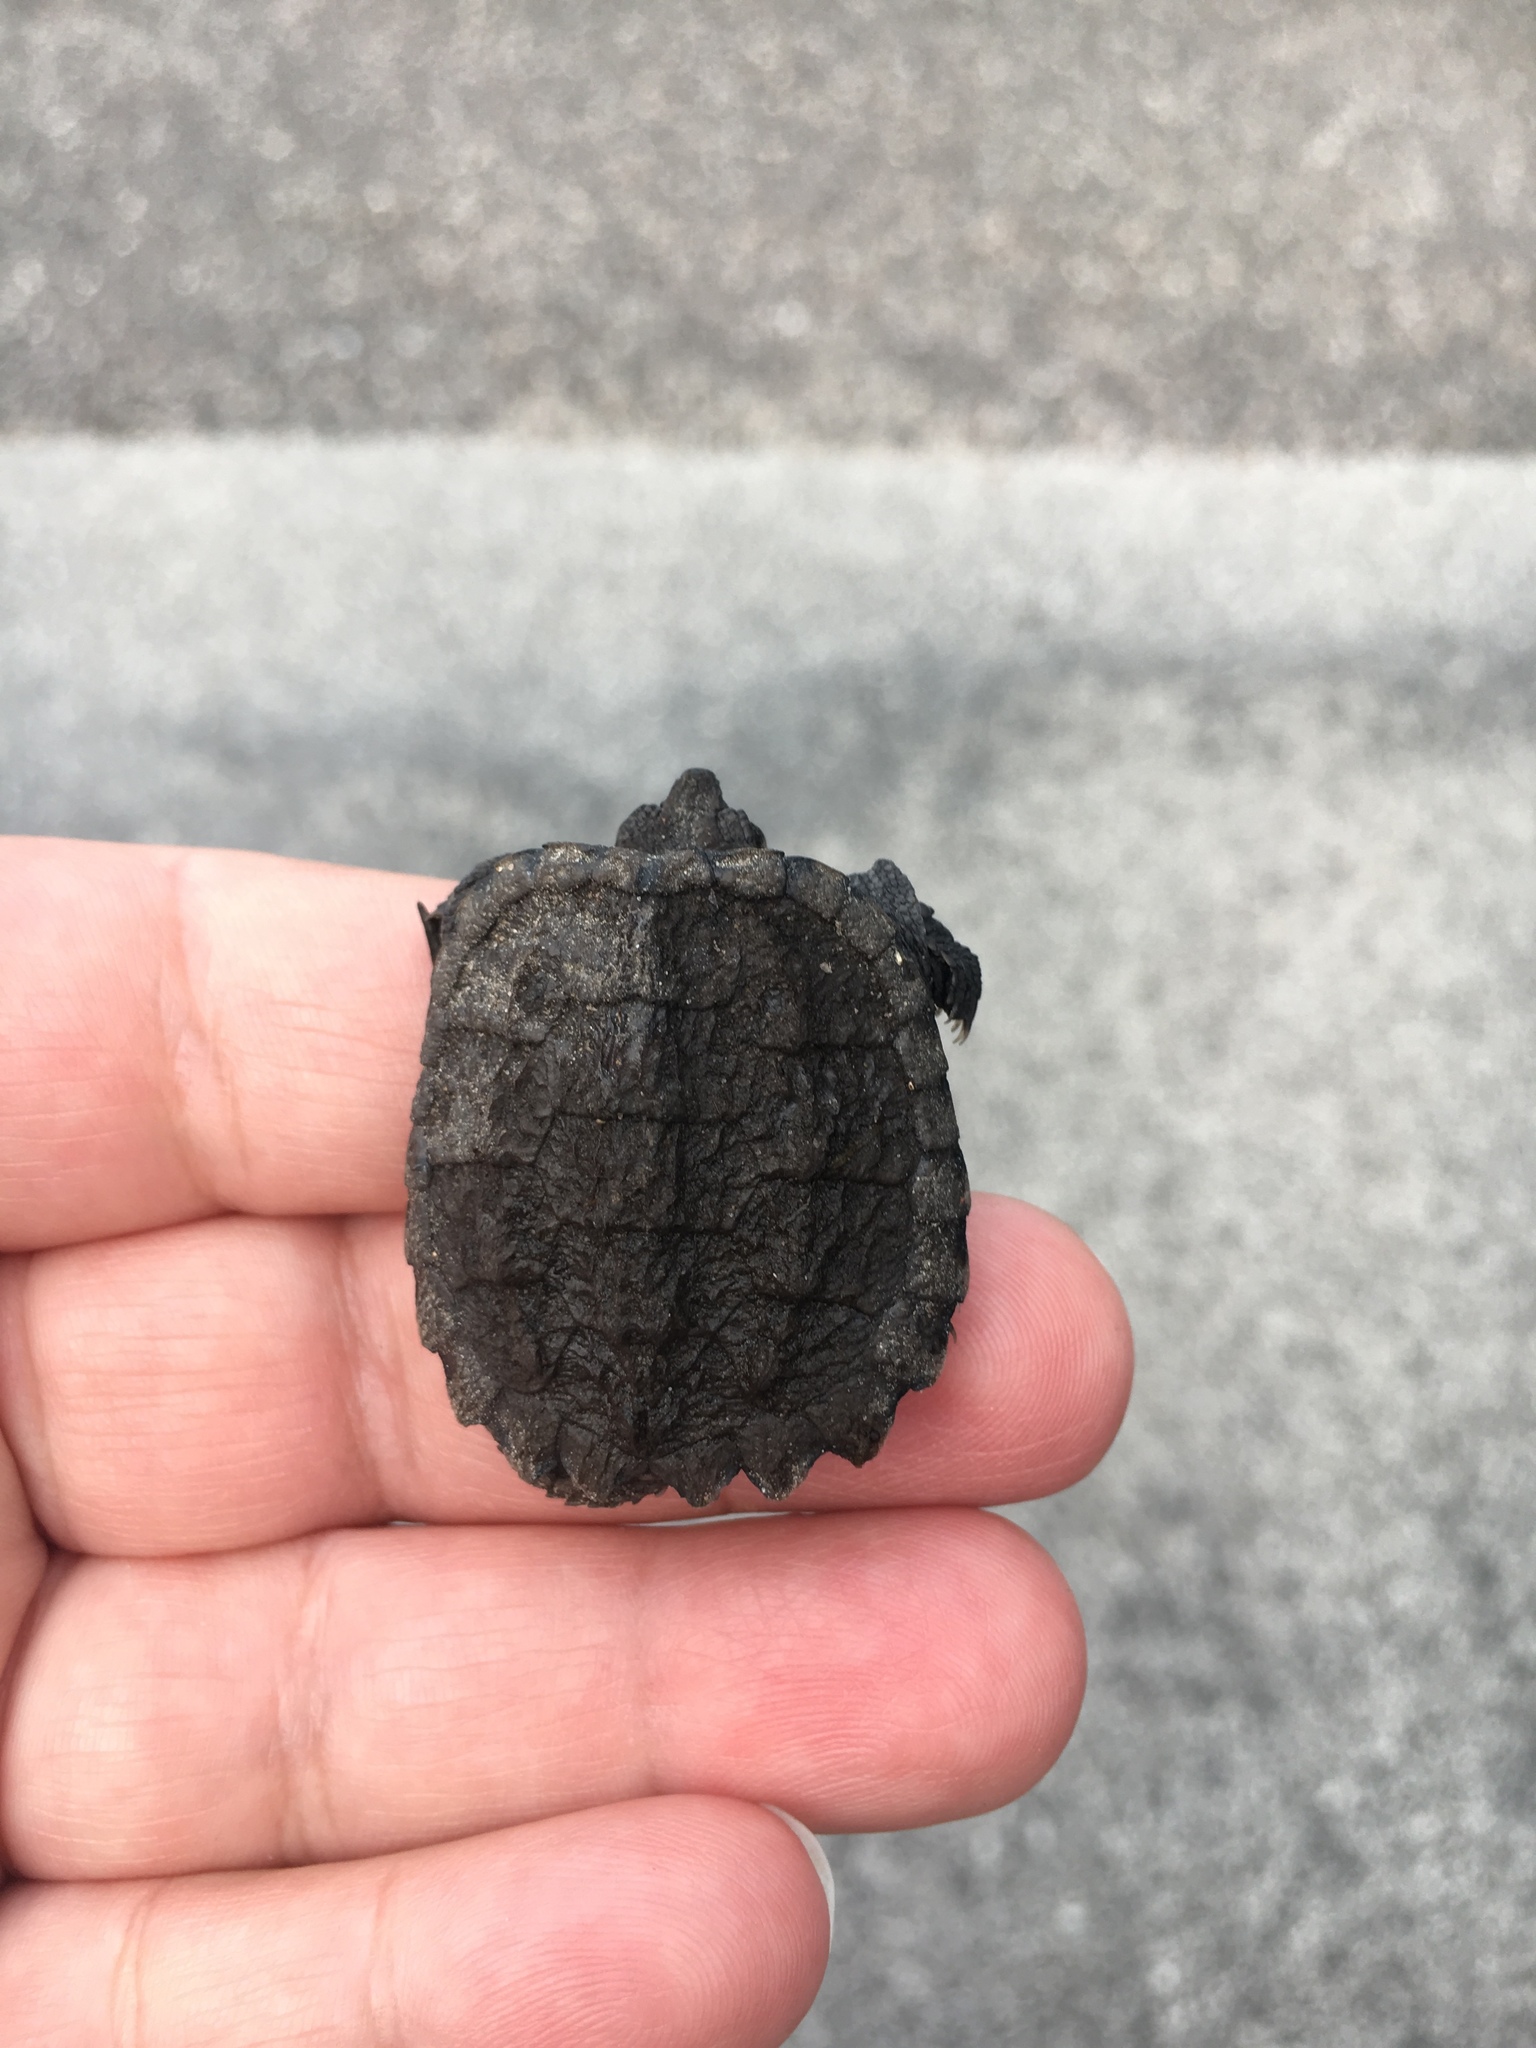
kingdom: Animalia
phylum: Chordata
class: Testudines
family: Chelydridae
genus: Chelydra
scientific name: Chelydra serpentina
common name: Common snapping turtle
